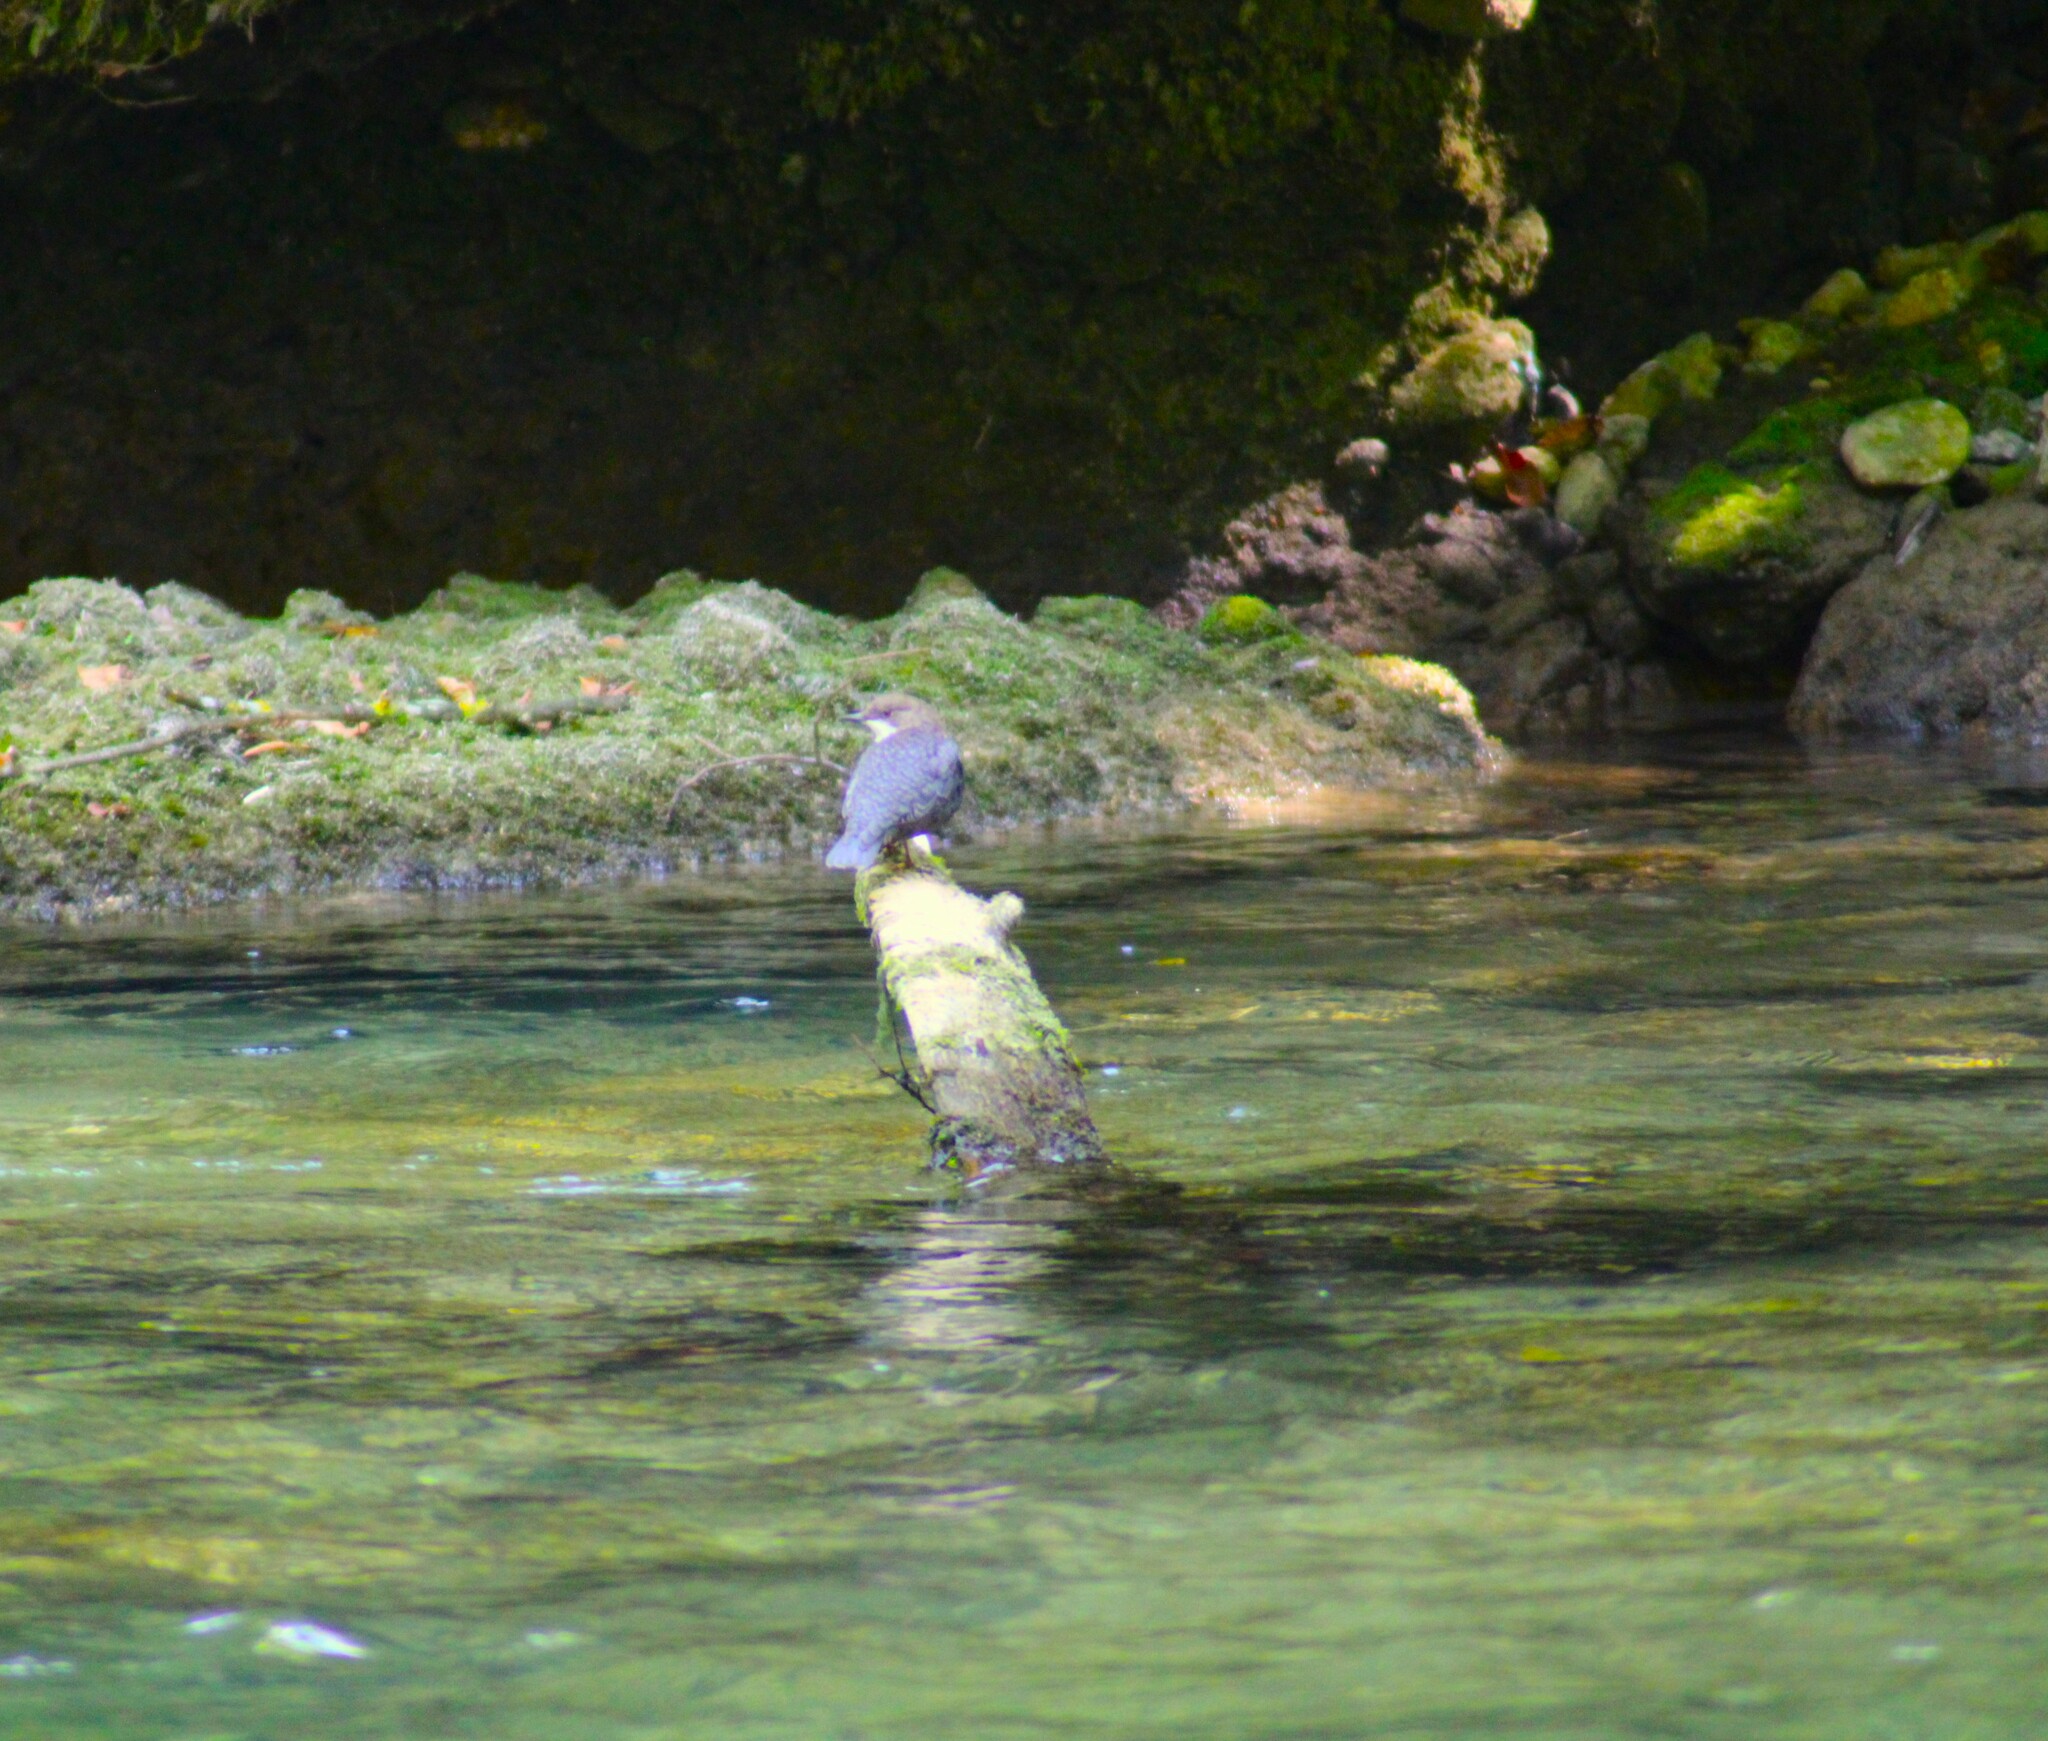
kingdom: Animalia
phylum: Chordata
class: Aves
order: Passeriformes
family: Cinclidae
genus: Cinclus
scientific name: Cinclus cinclus
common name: White-throated dipper
